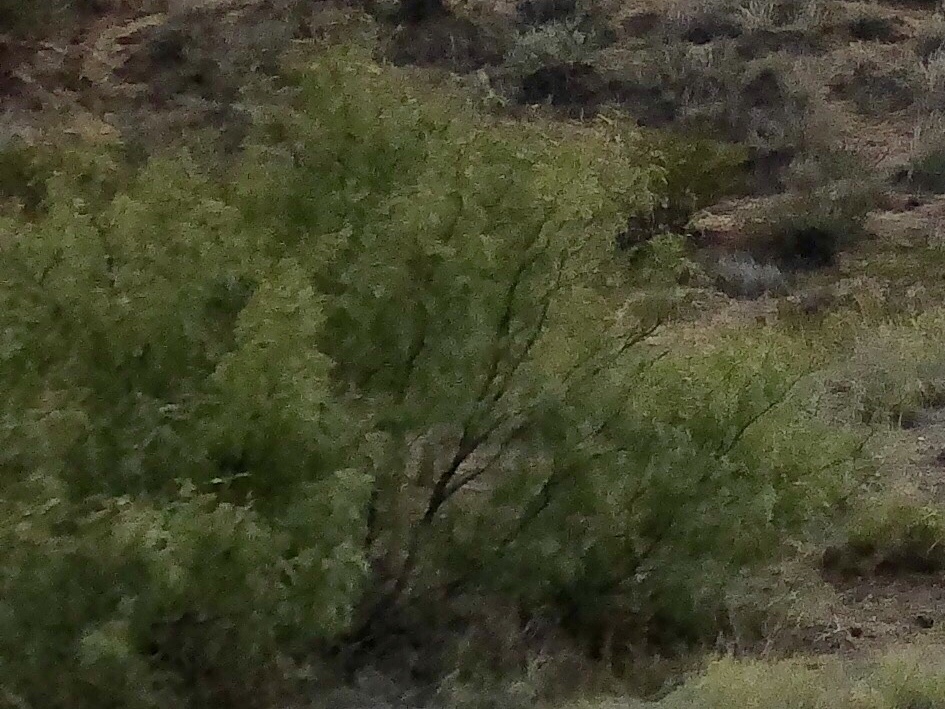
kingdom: Plantae
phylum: Tracheophyta
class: Magnoliopsida
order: Fabales
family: Fabaceae
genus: Prosopis
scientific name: Prosopis glandulosa
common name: Honey mesquite
